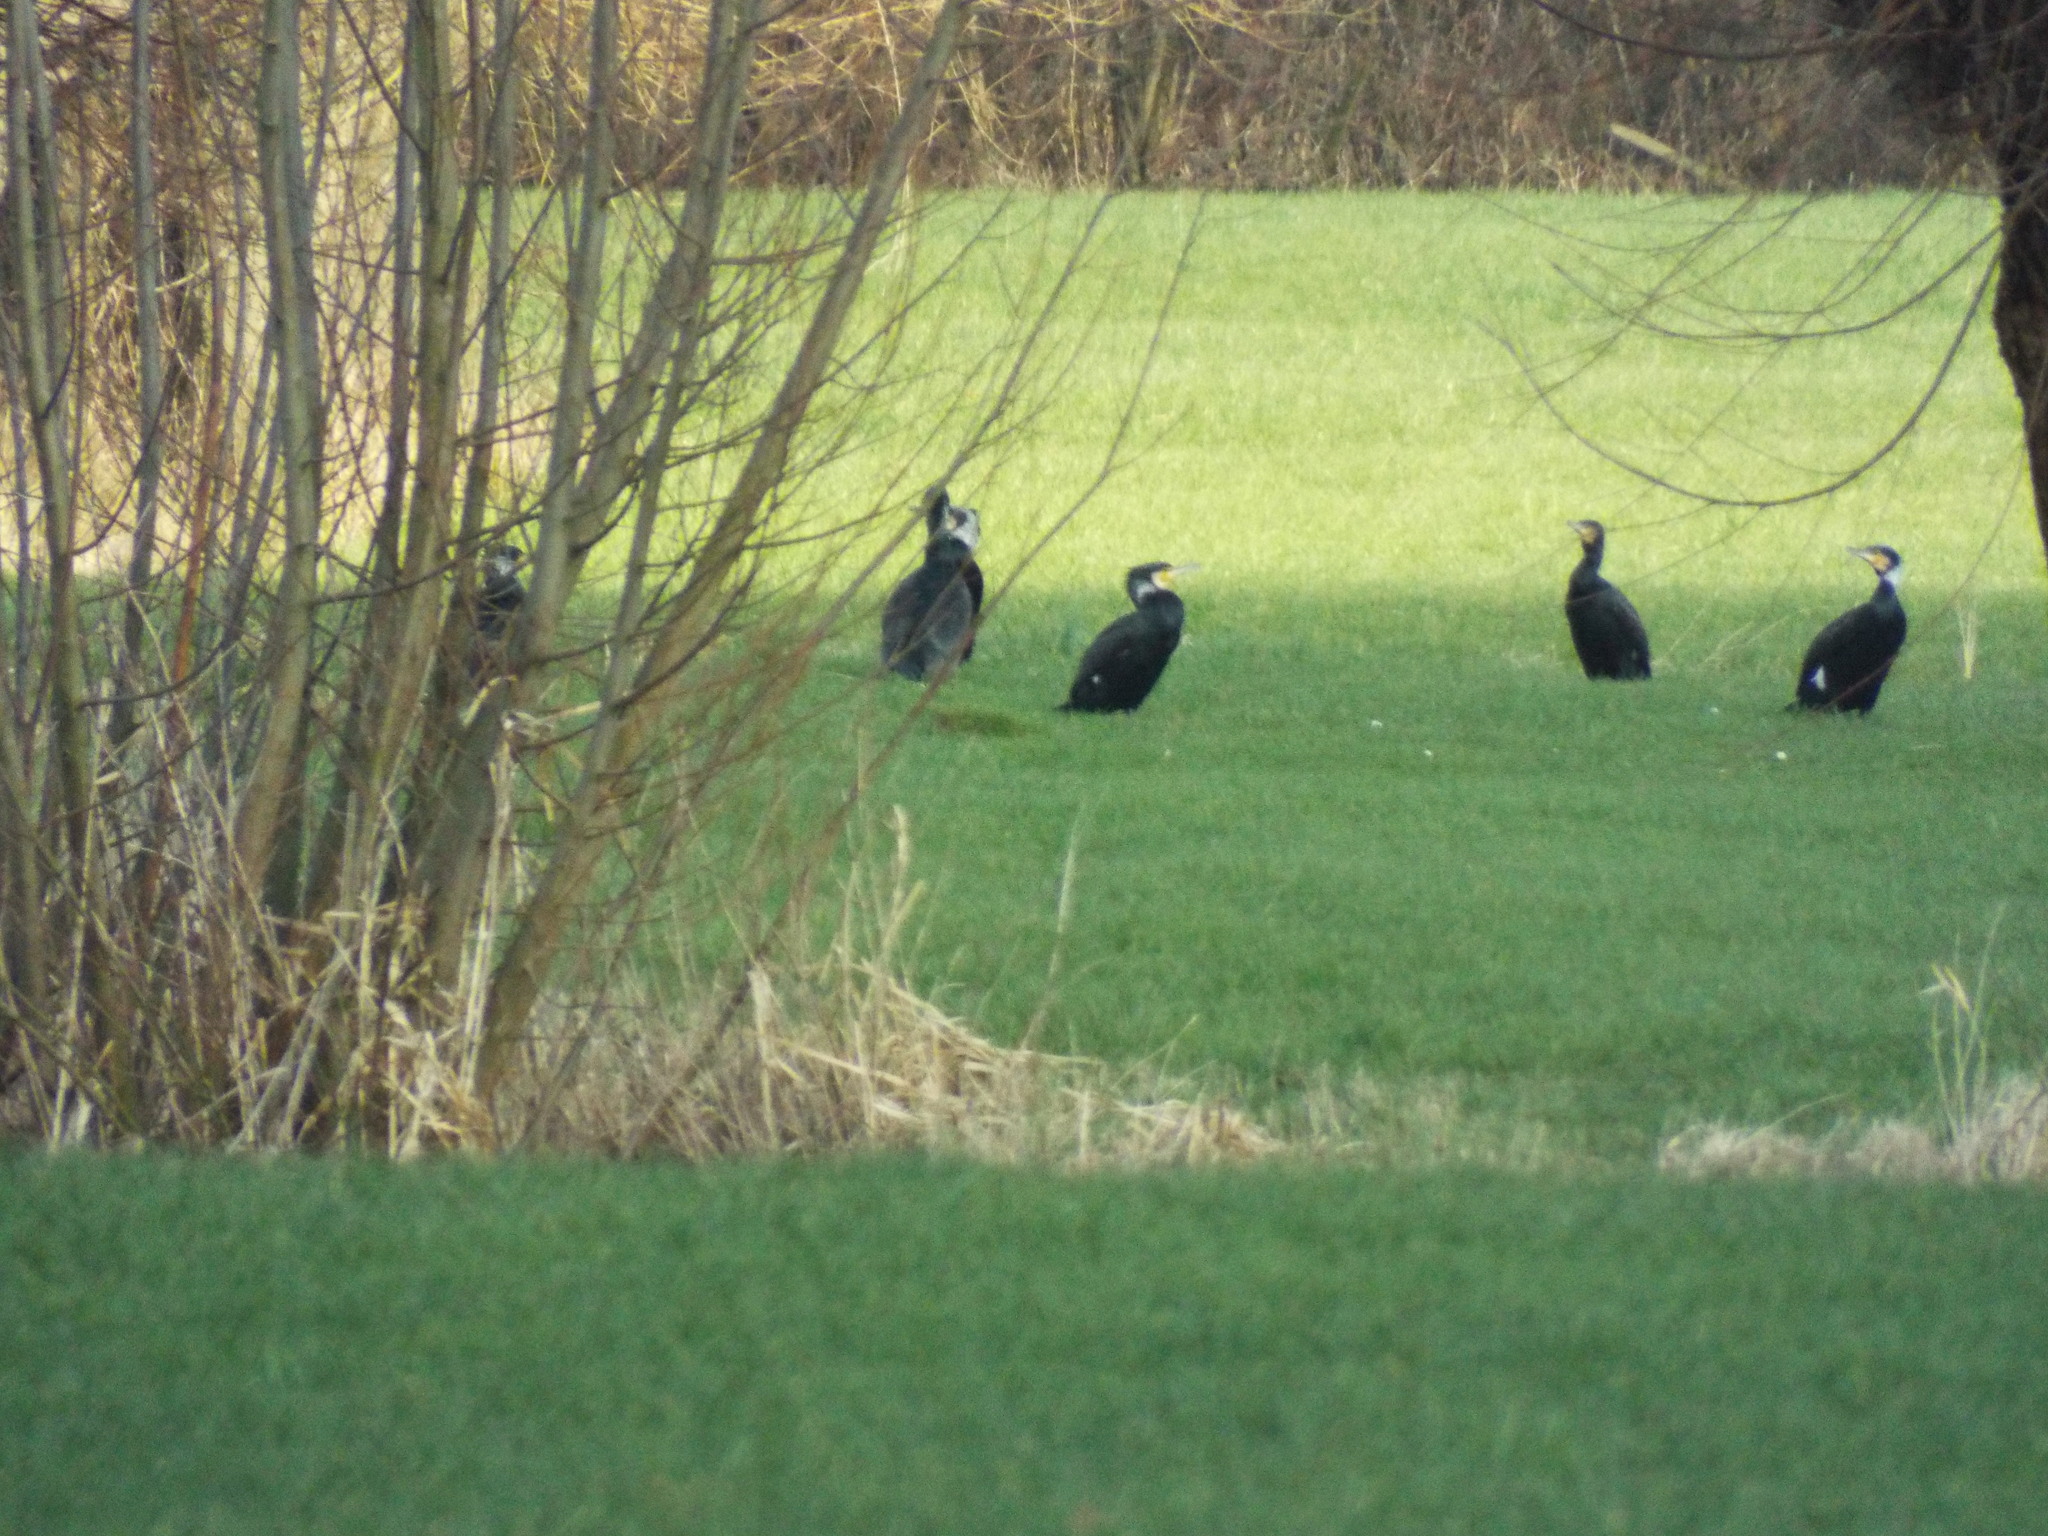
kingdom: Animalia
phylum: Chordata
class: Aves
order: Suliformes
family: Phalacrocoracidae
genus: Phalacrocorax
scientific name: Phalacrocorax carbo
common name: Great cormorant
